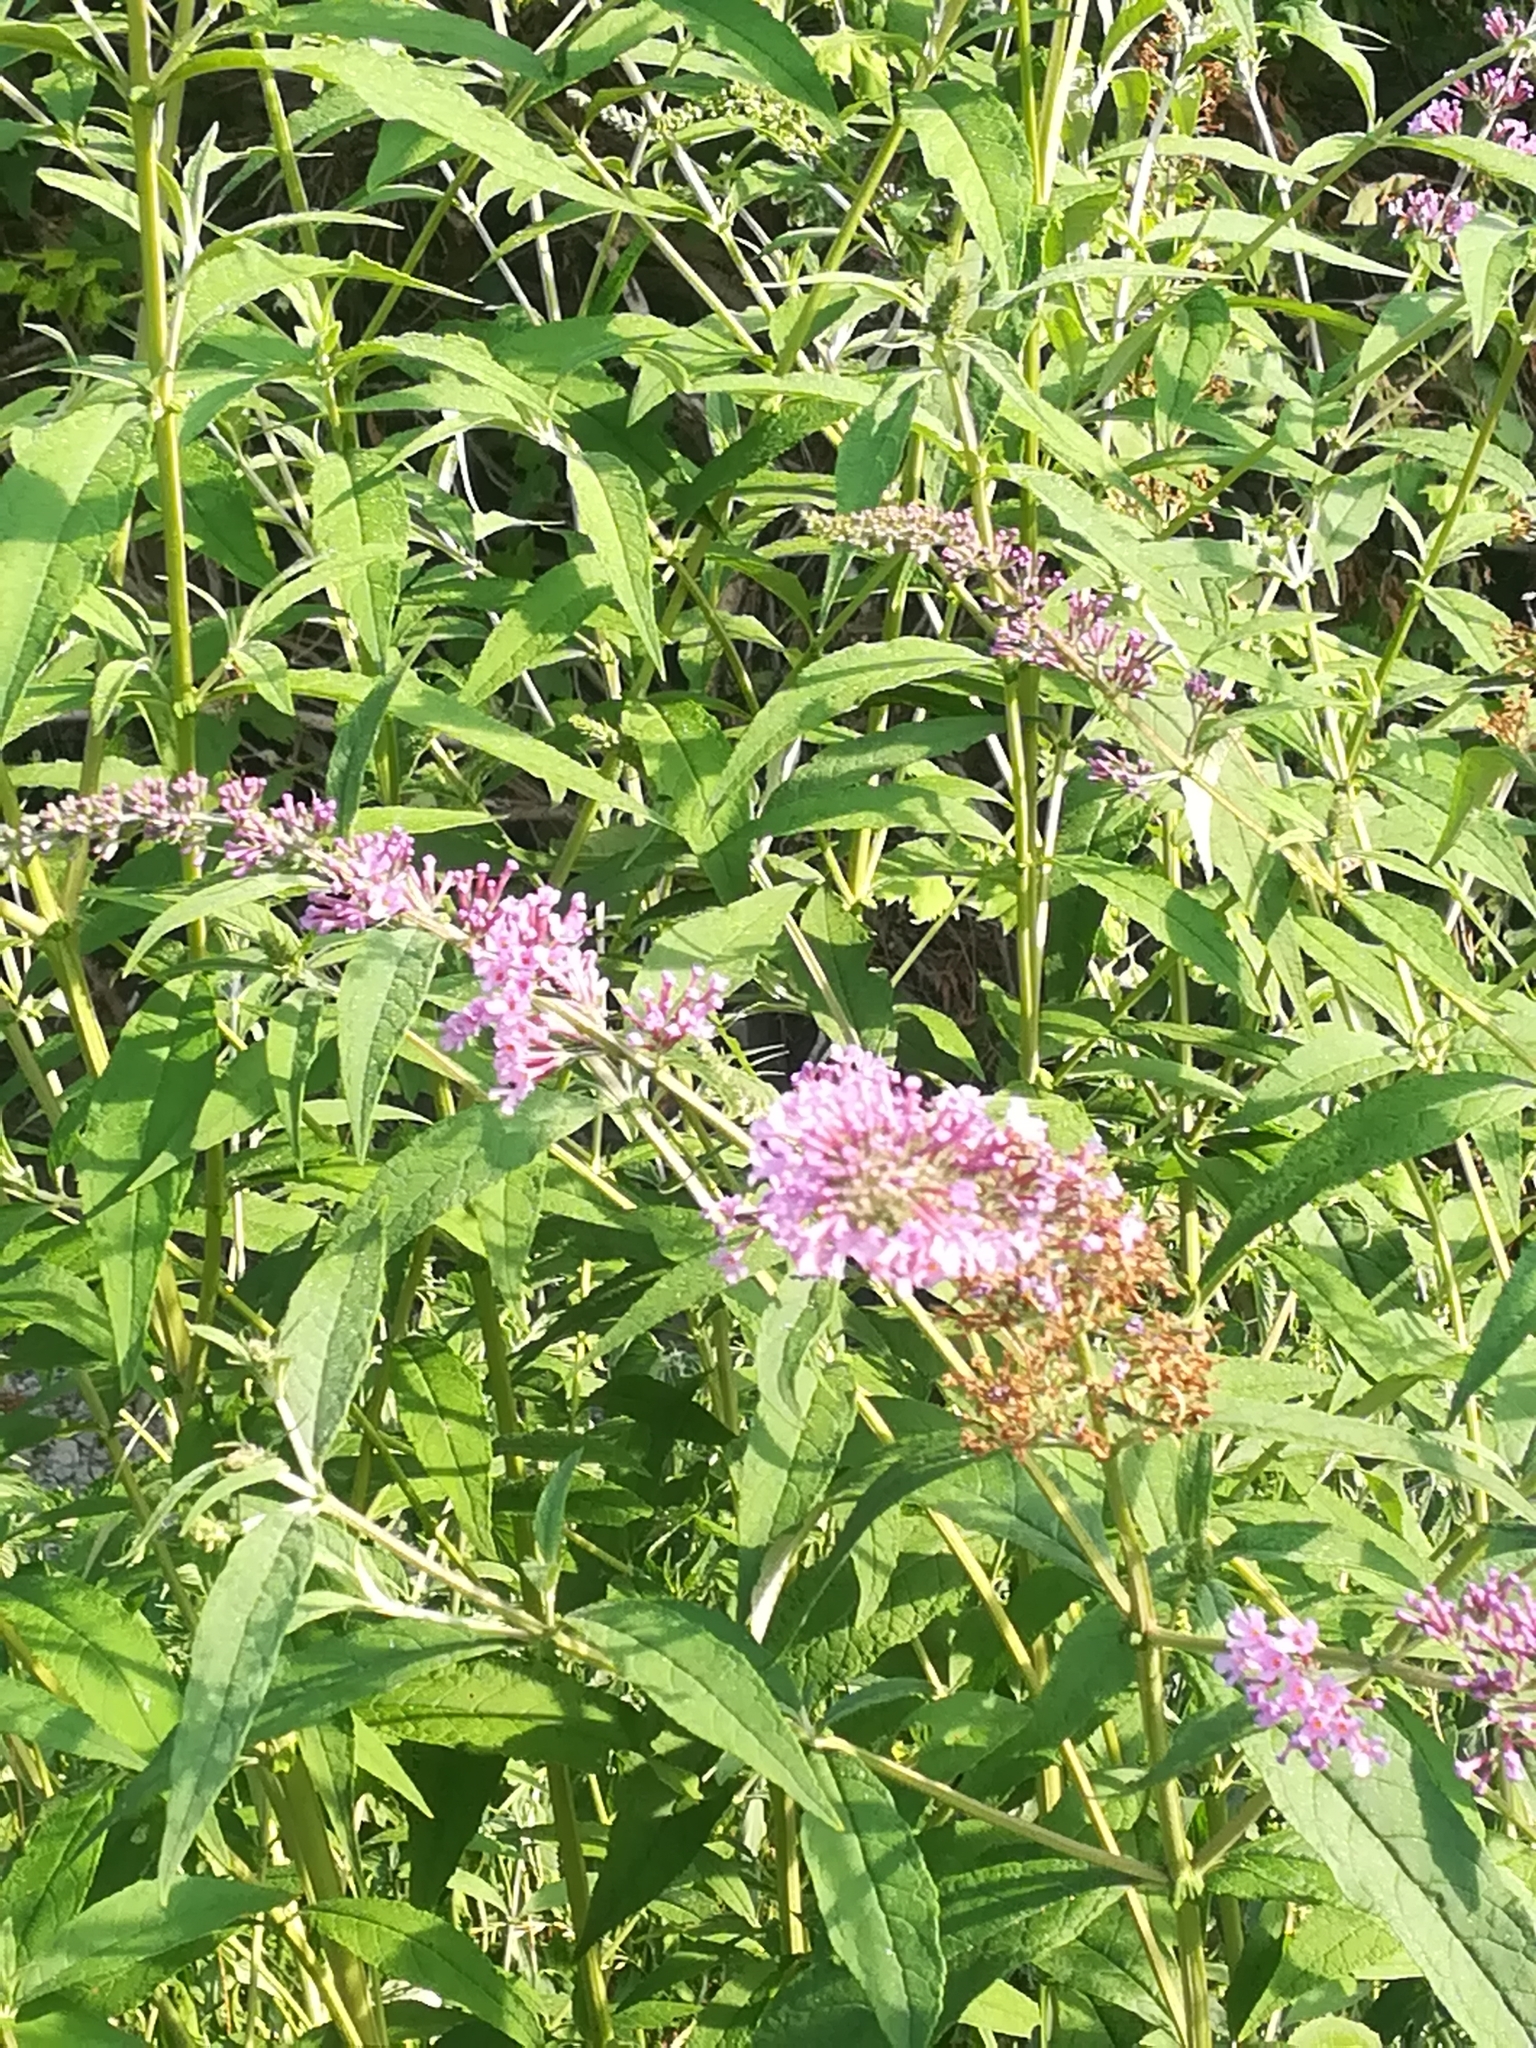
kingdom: Plantae
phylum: Tracheophyta
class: Magnoliopsida
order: Lamiales
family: Scrophulariaceae
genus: Buddleja
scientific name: Buddleja davidii
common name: Butterfly-bush
